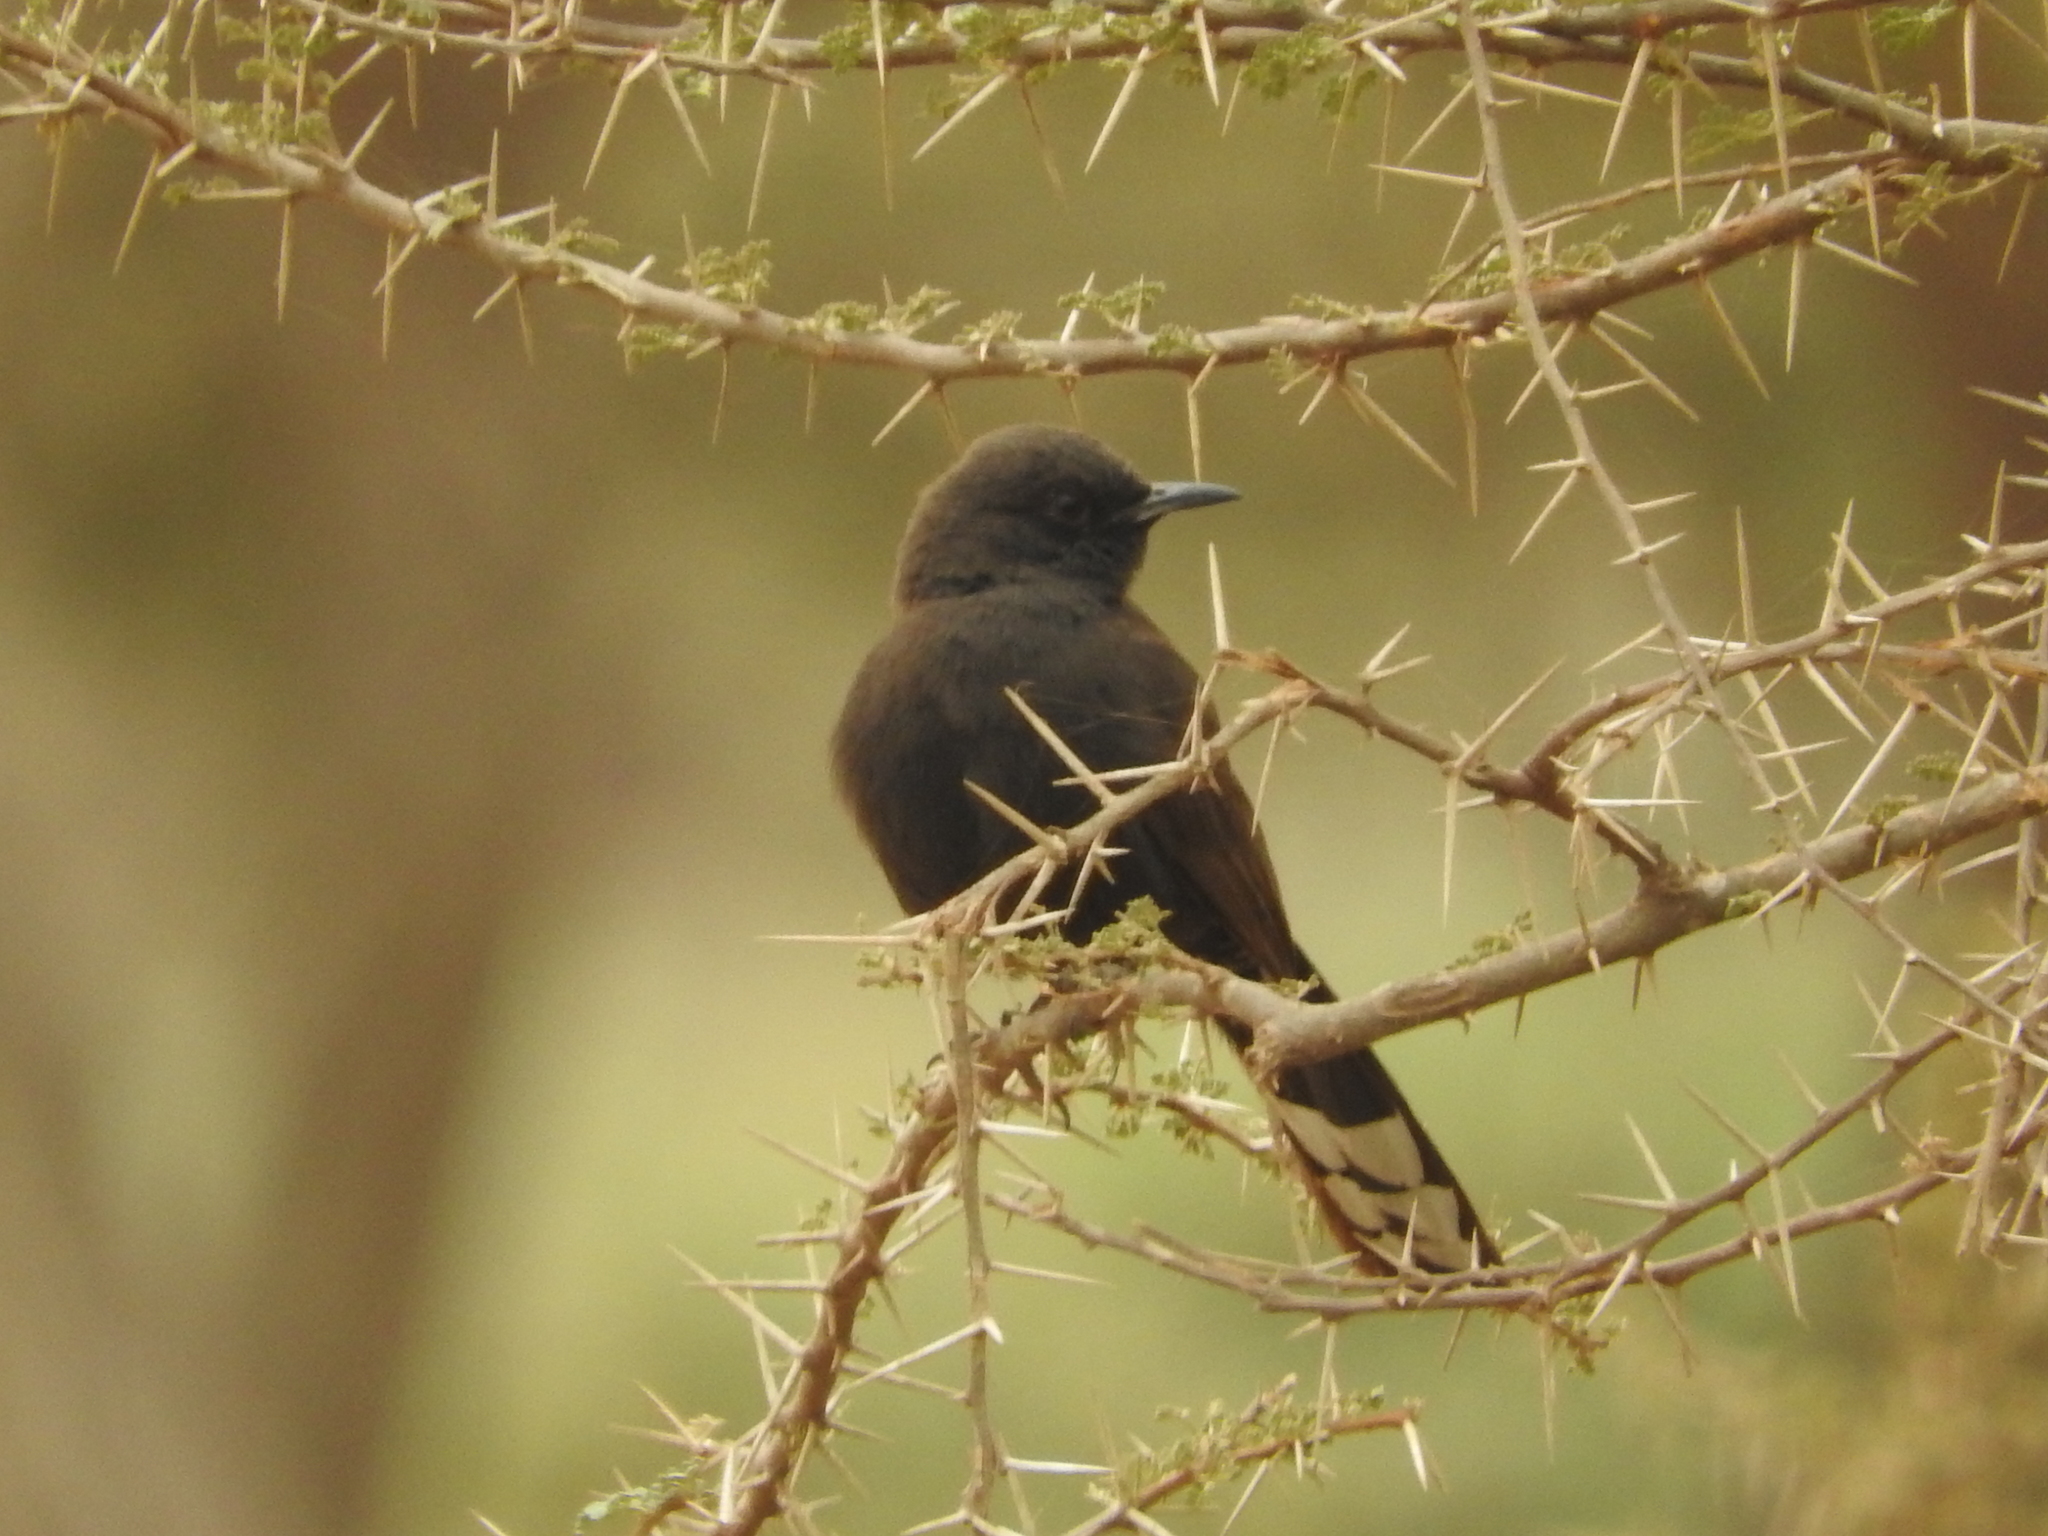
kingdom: Animalia
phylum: Chordata
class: Aves
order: Passeriformes
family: Muscicapidae
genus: Cercotrichas
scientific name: Cercotrichas podobe
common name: Black scrub robin
